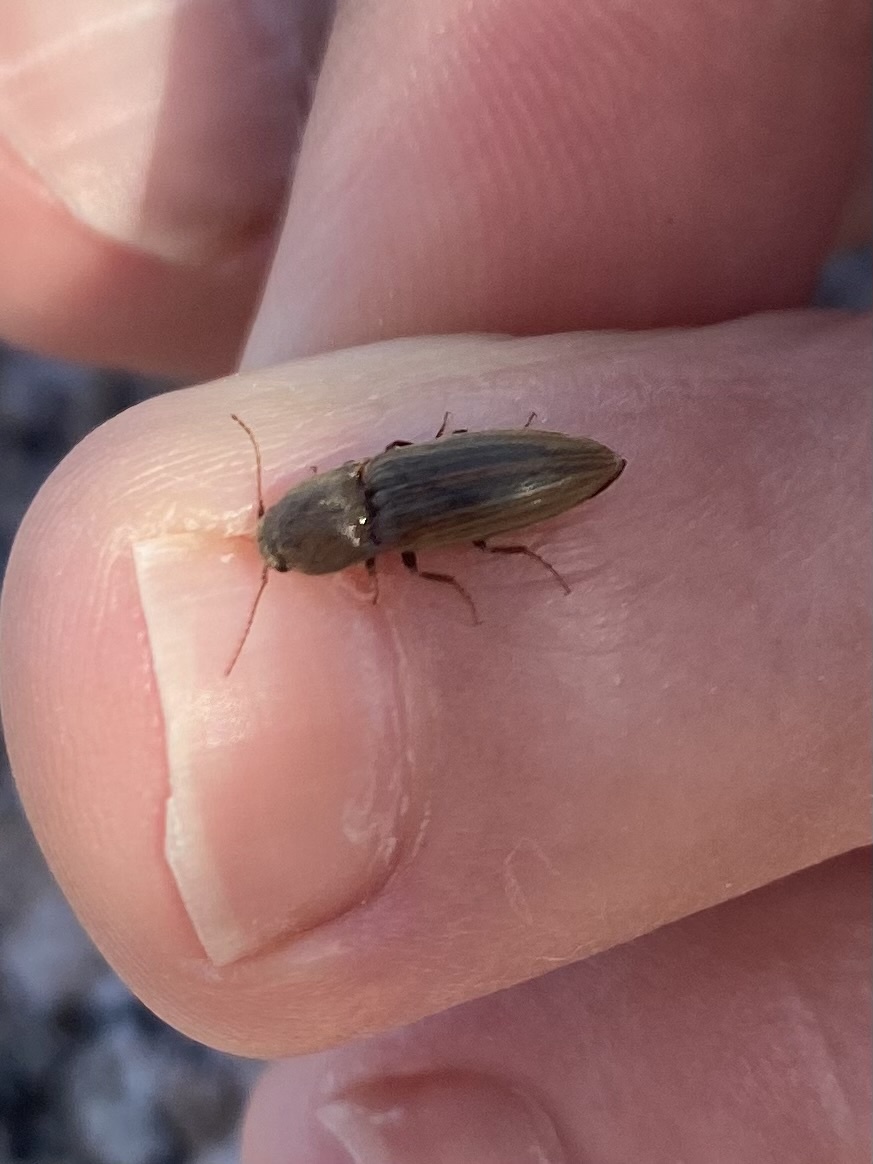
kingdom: Animalia
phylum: Arthropoda
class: Insecta
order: Coleoptera
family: Elateridae
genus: Agriotes
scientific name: Agriotes lineatus
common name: Lined click beetle
